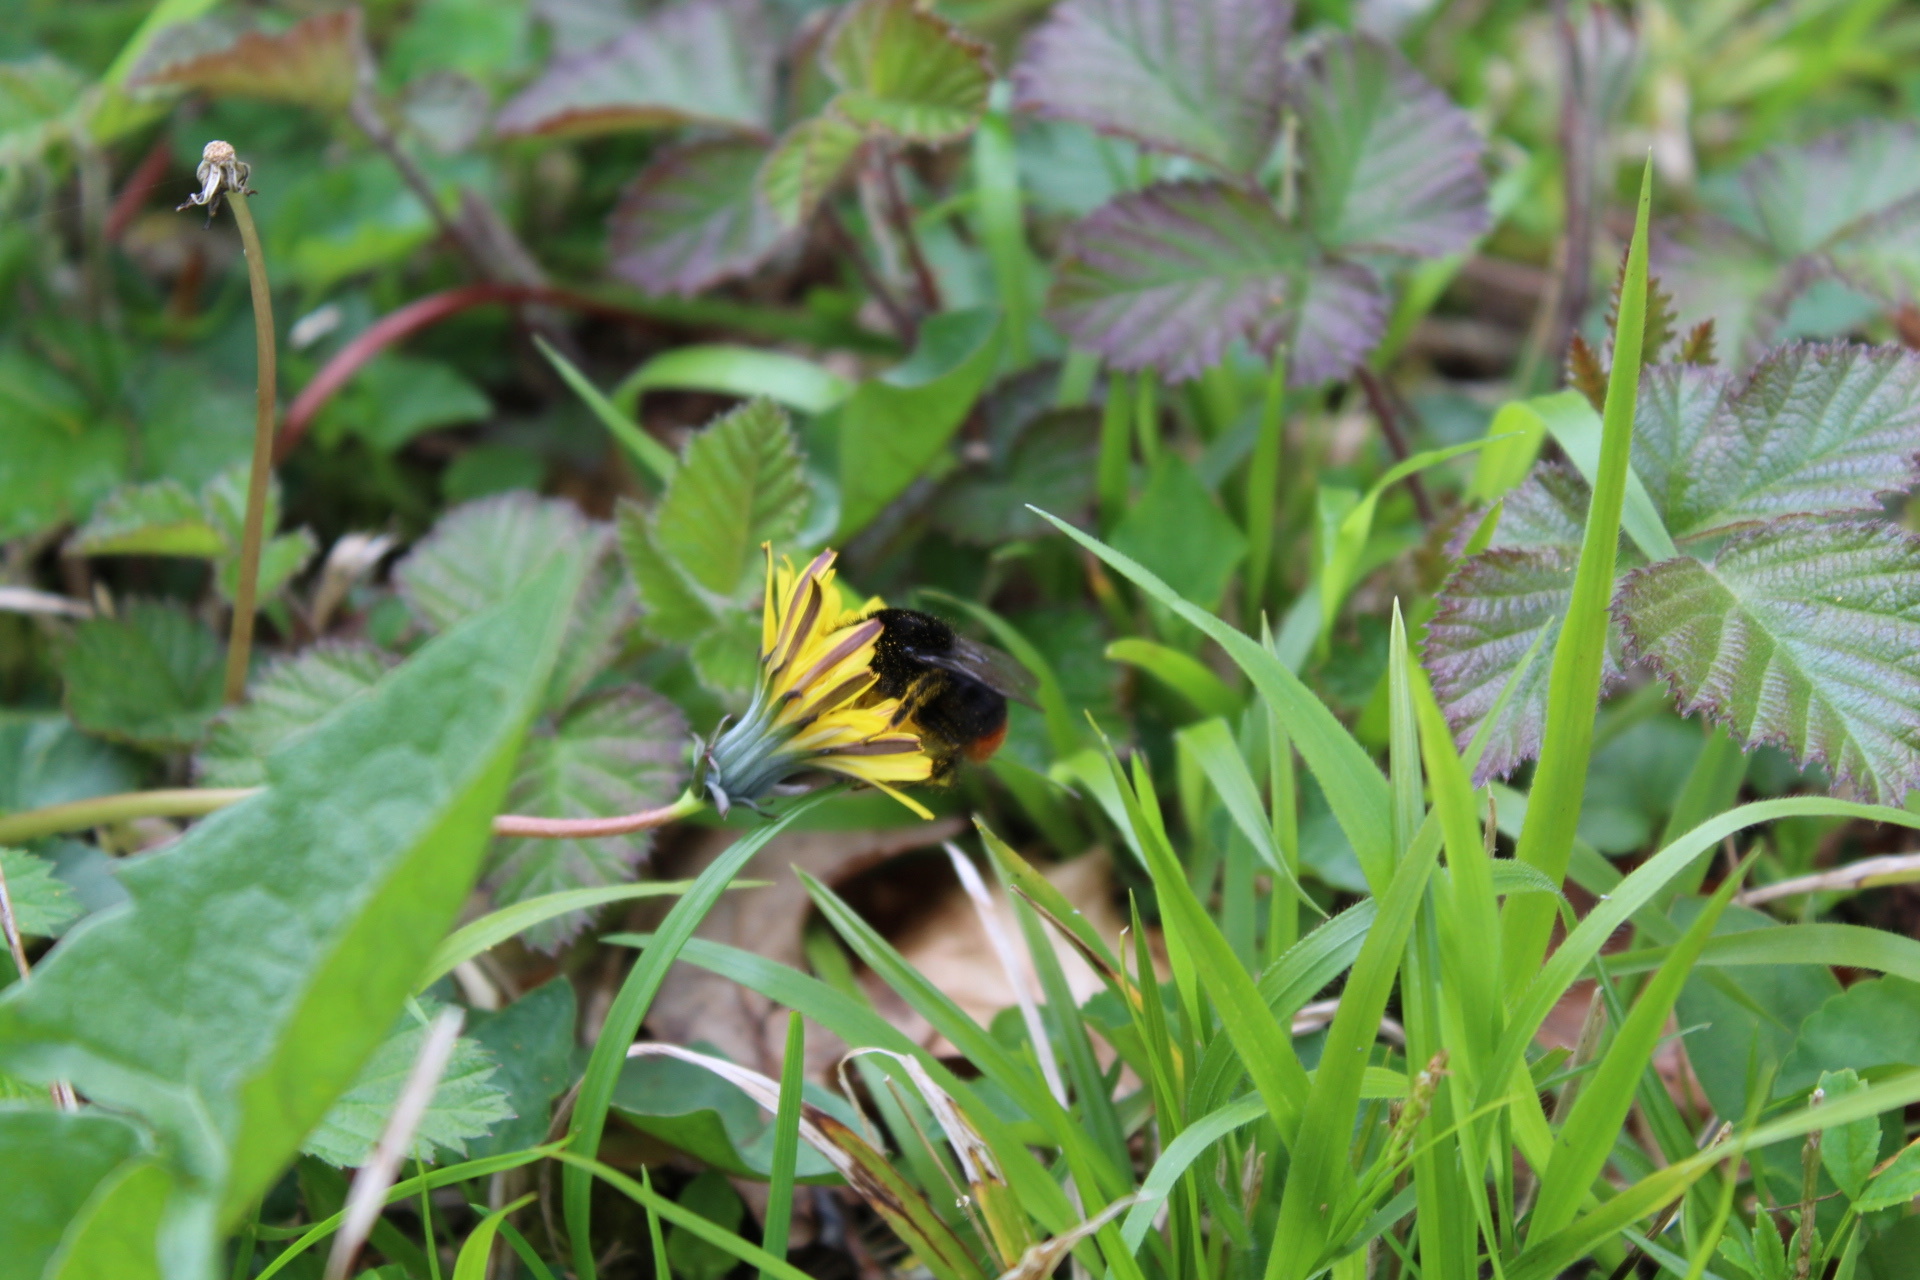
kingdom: Animalia
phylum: Arthropoda
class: Insecta
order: Hymenoptera
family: Apidae
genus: Bombus
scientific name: Bombus lapidarius
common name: Large red-tailed humble-bee
